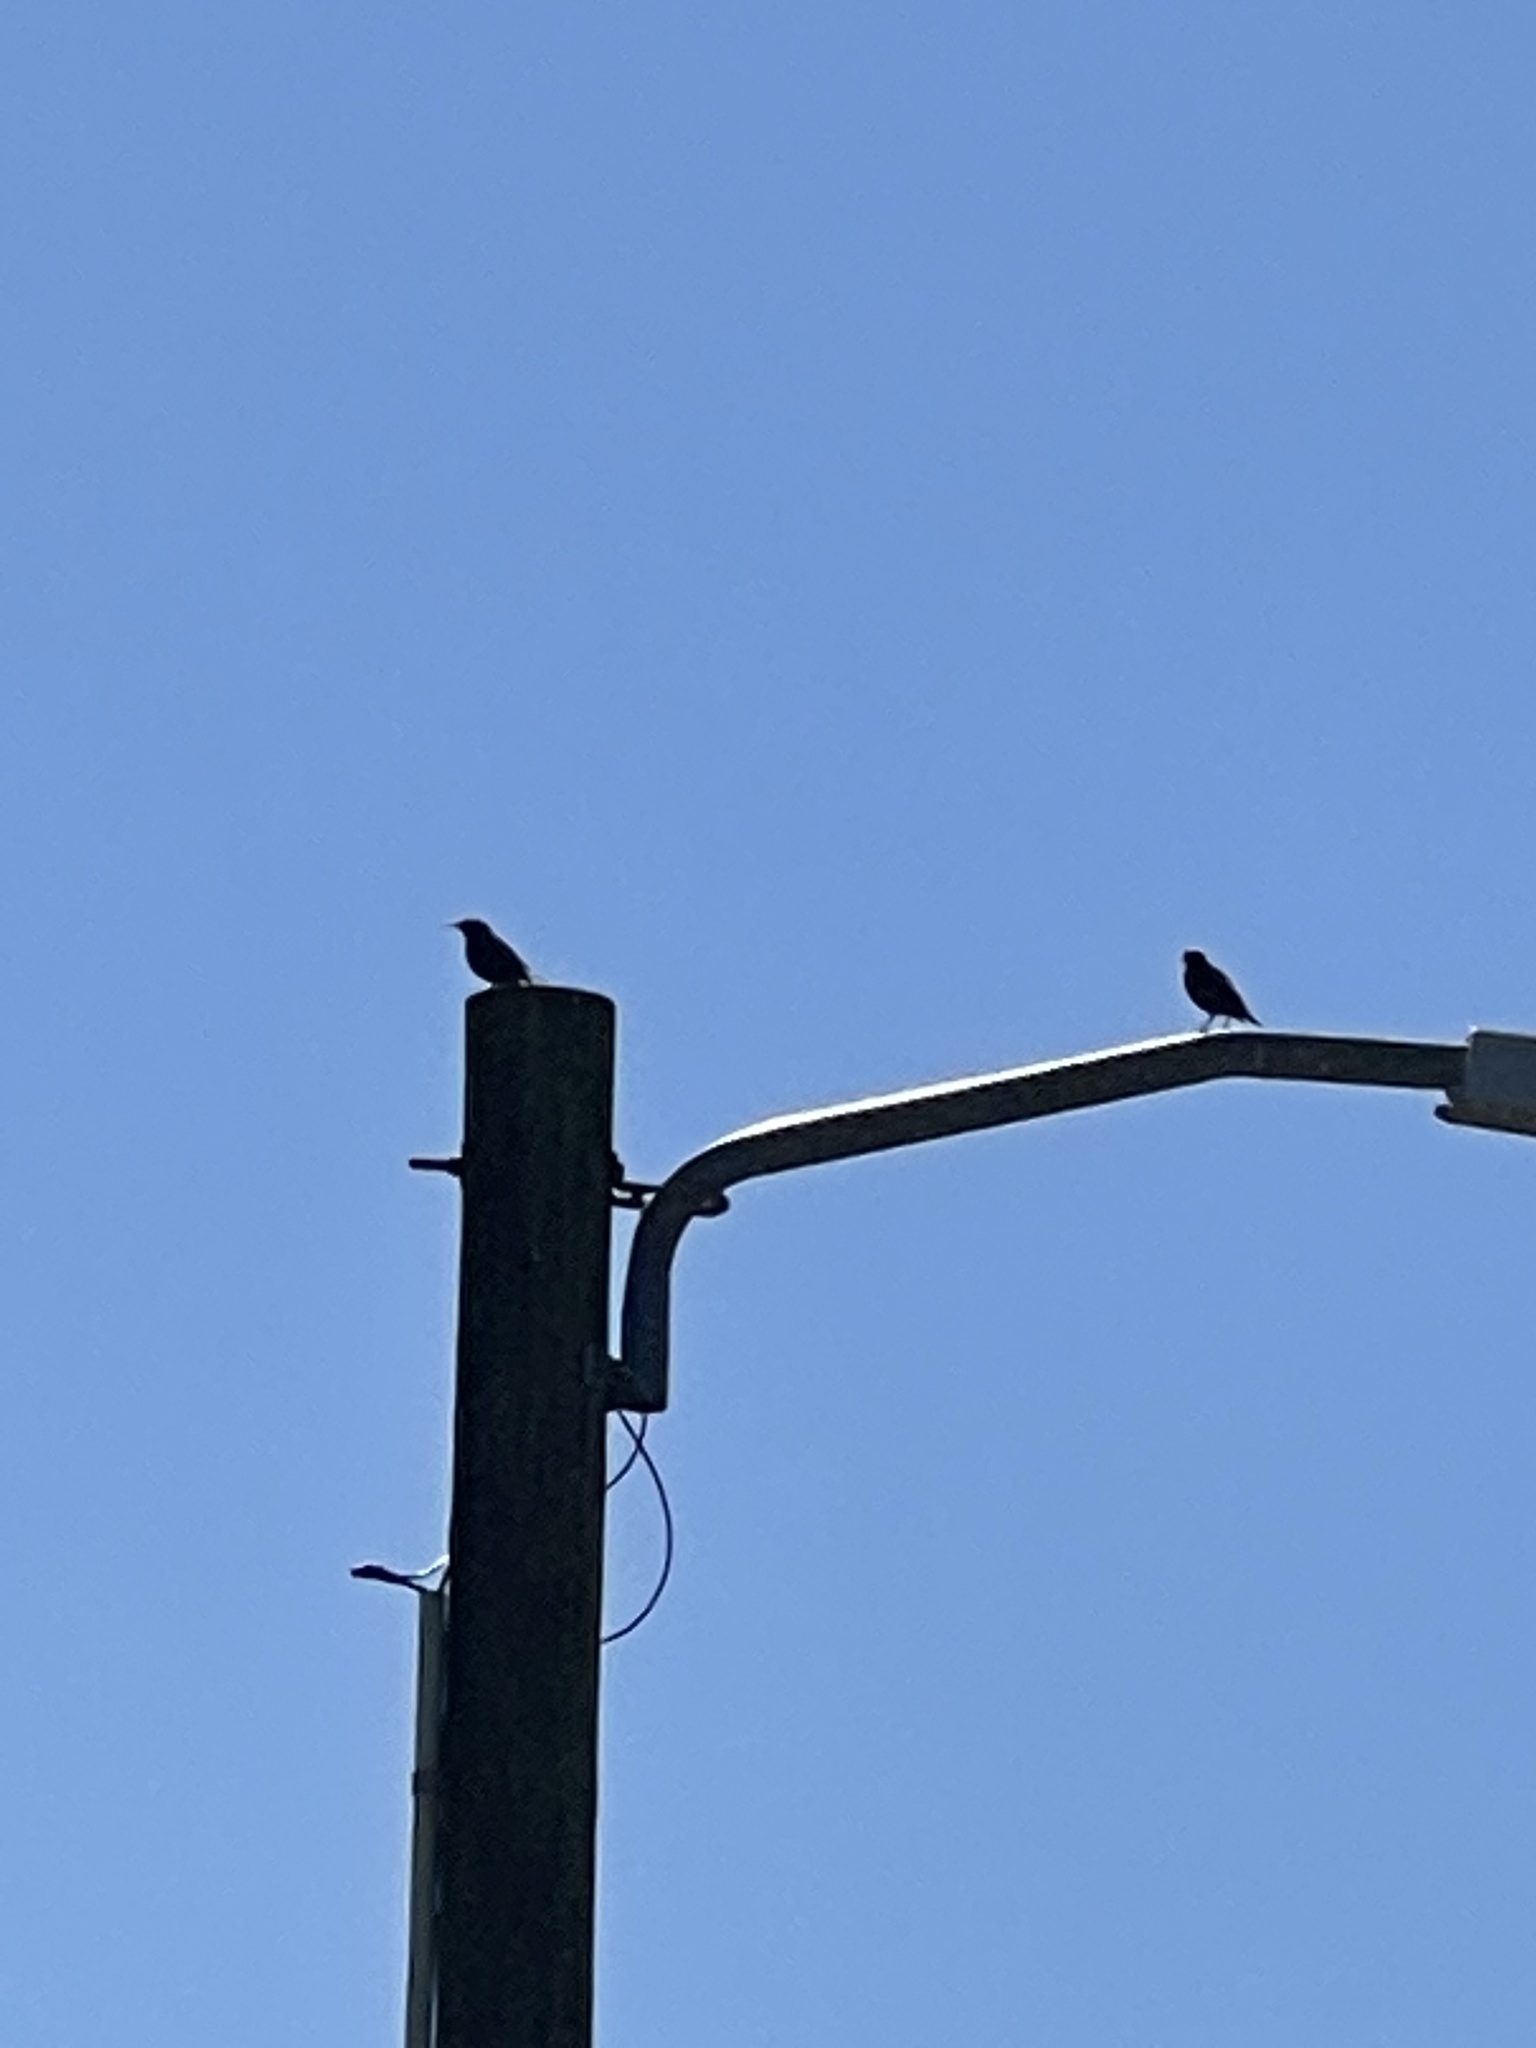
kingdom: Animalia
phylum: Chordata
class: Aves
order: Passeriformes
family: Sturnidae
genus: Sturnus
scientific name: Sturnus vulgaris
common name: Common starling
